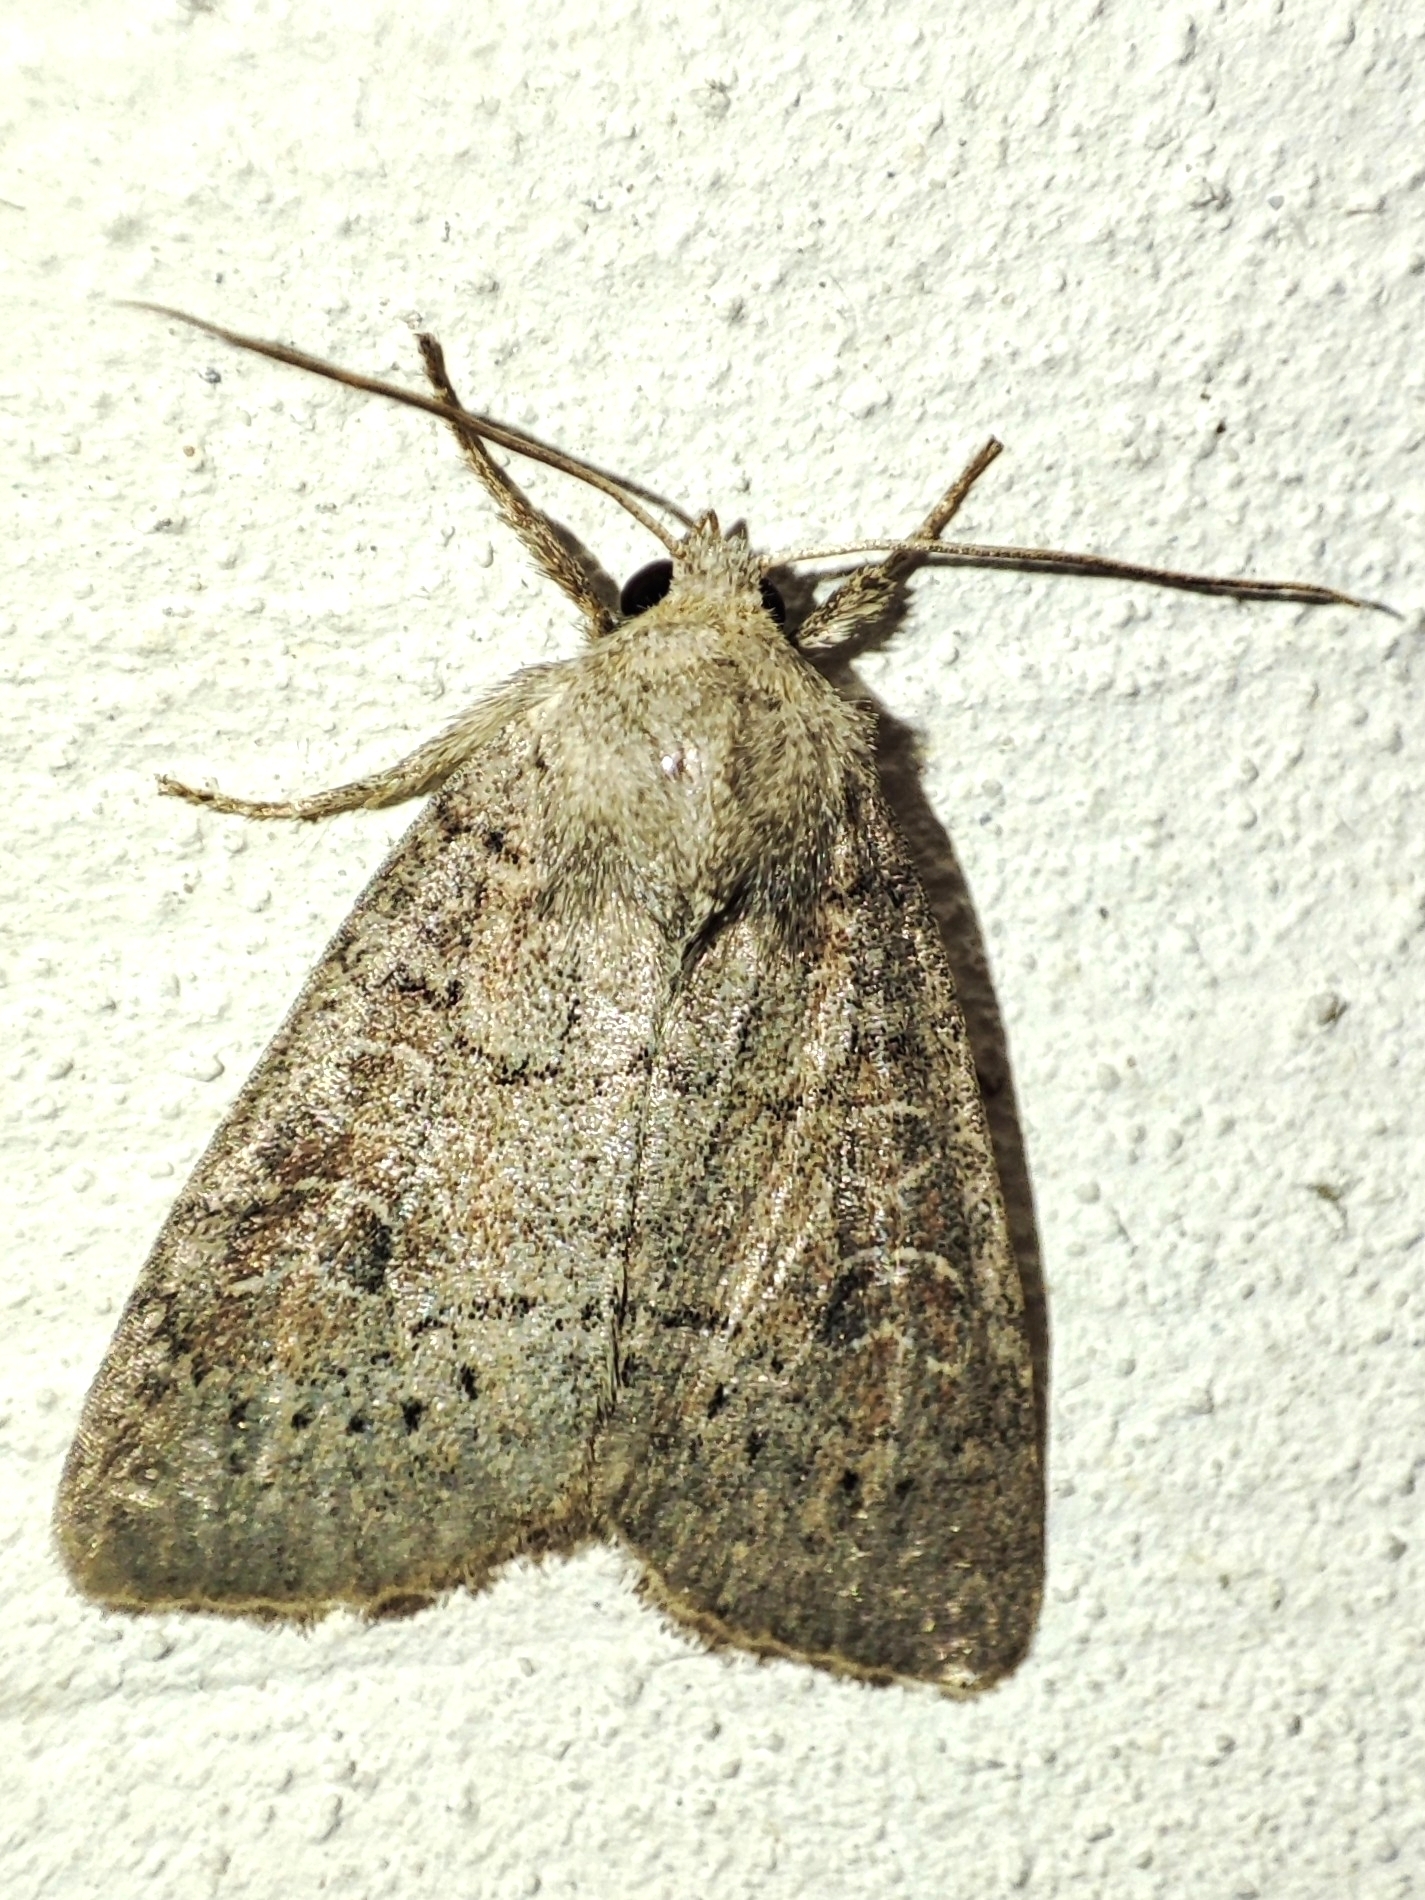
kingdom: Animalia
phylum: Arthropoda
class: Insecta
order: Lepidoptera
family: Noctuidae
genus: Parastichtis
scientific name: Parastichtis suspecta
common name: Suspected
